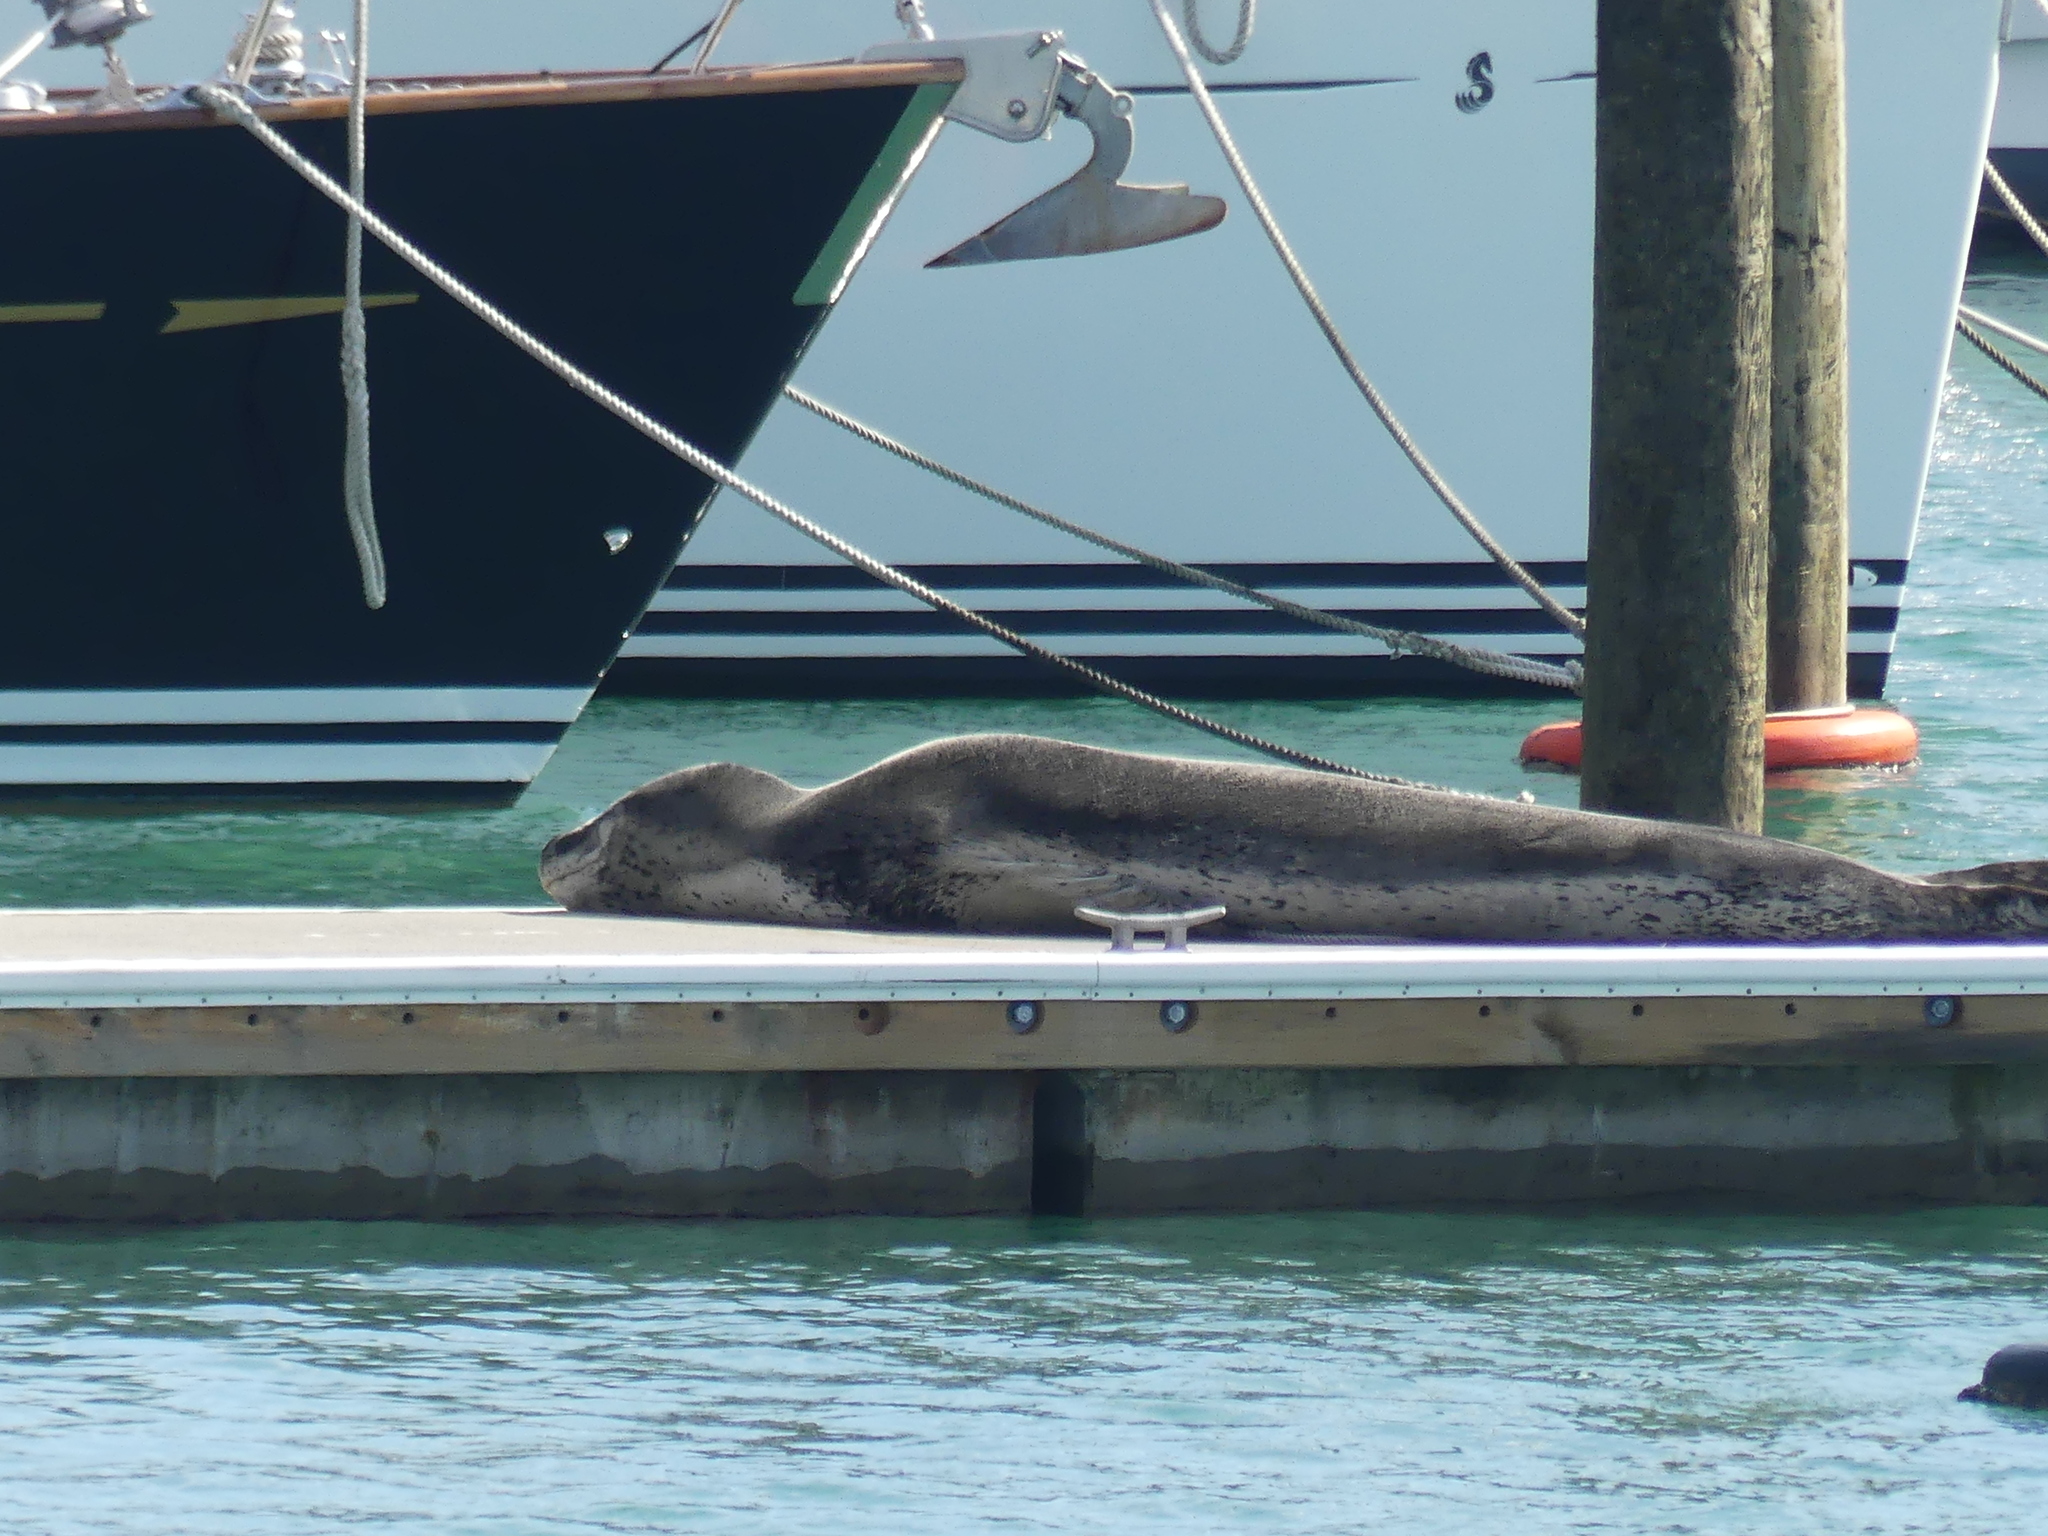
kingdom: Animalia
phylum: Chordata
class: Mammalia
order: Carnivora
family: Phocidae
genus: Hydrurga
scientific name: Hydrurga leptonyx
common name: Leopard seal
